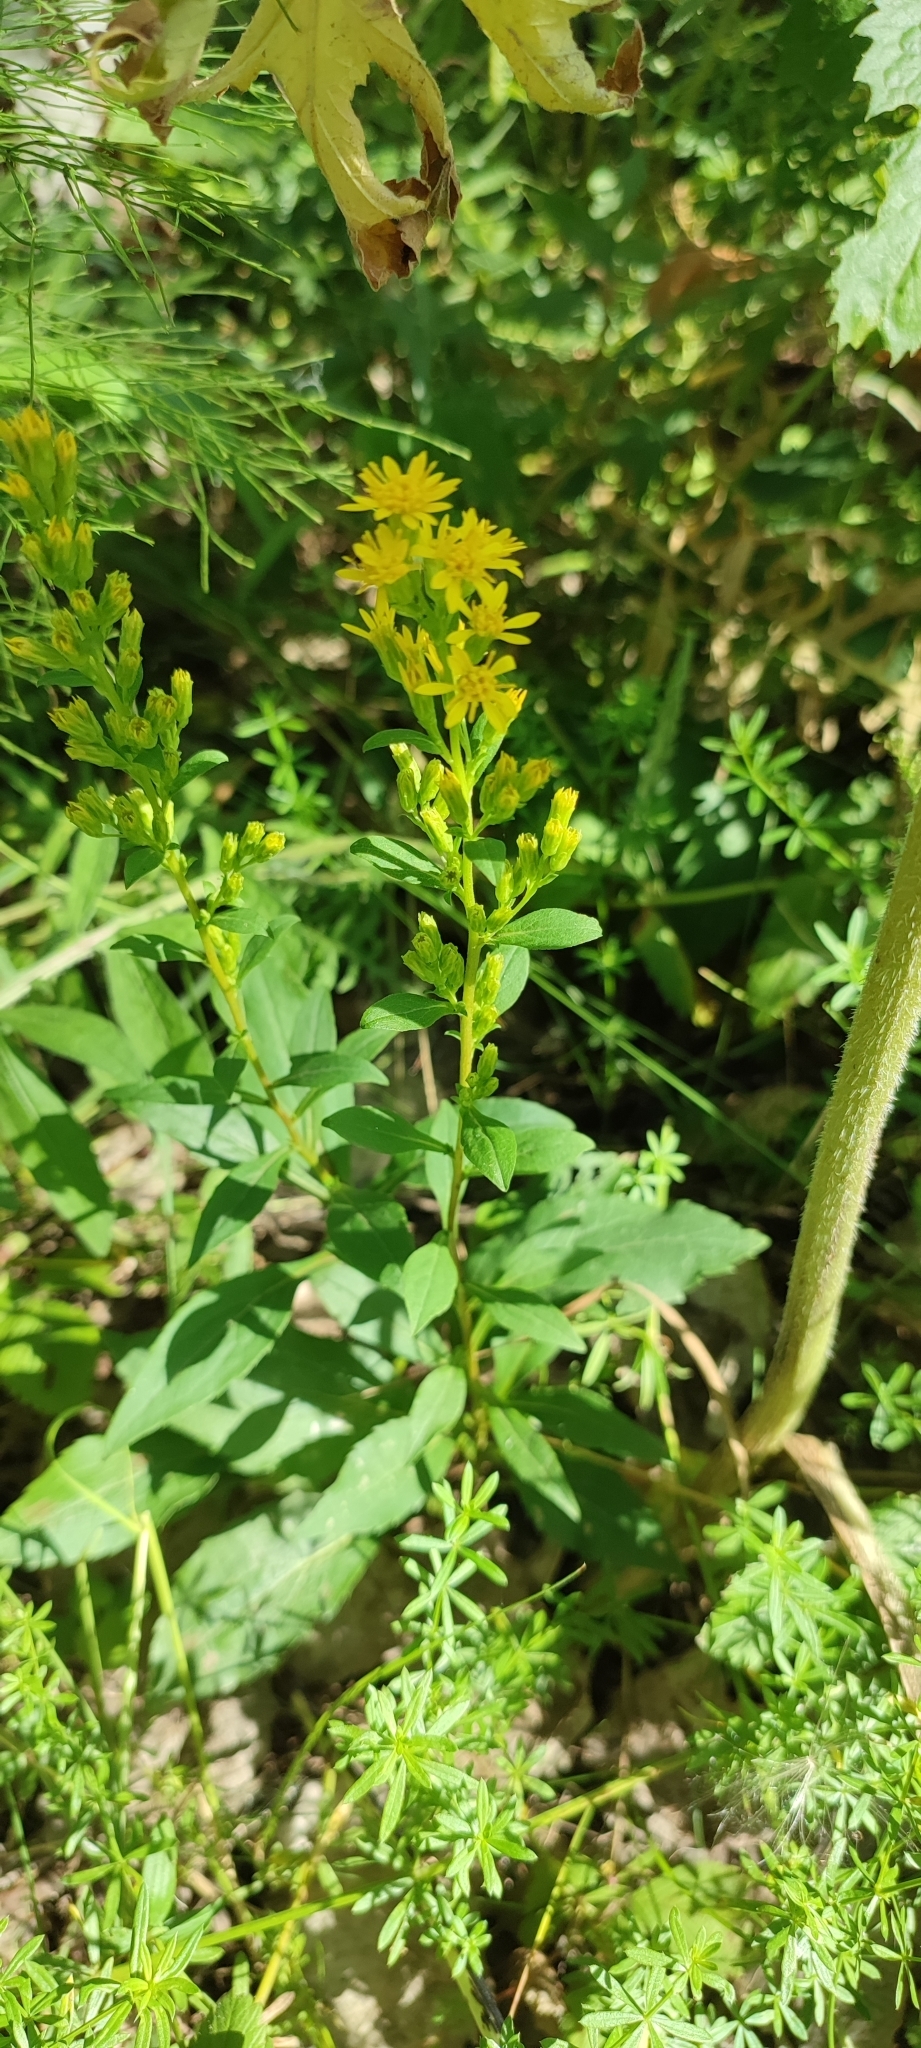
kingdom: Plantae
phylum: Tracheophyta
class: Magnoliopsida
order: Asterales
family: Asteraceae
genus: Solidago
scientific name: Solidago virgaurea
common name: Goldenrod
